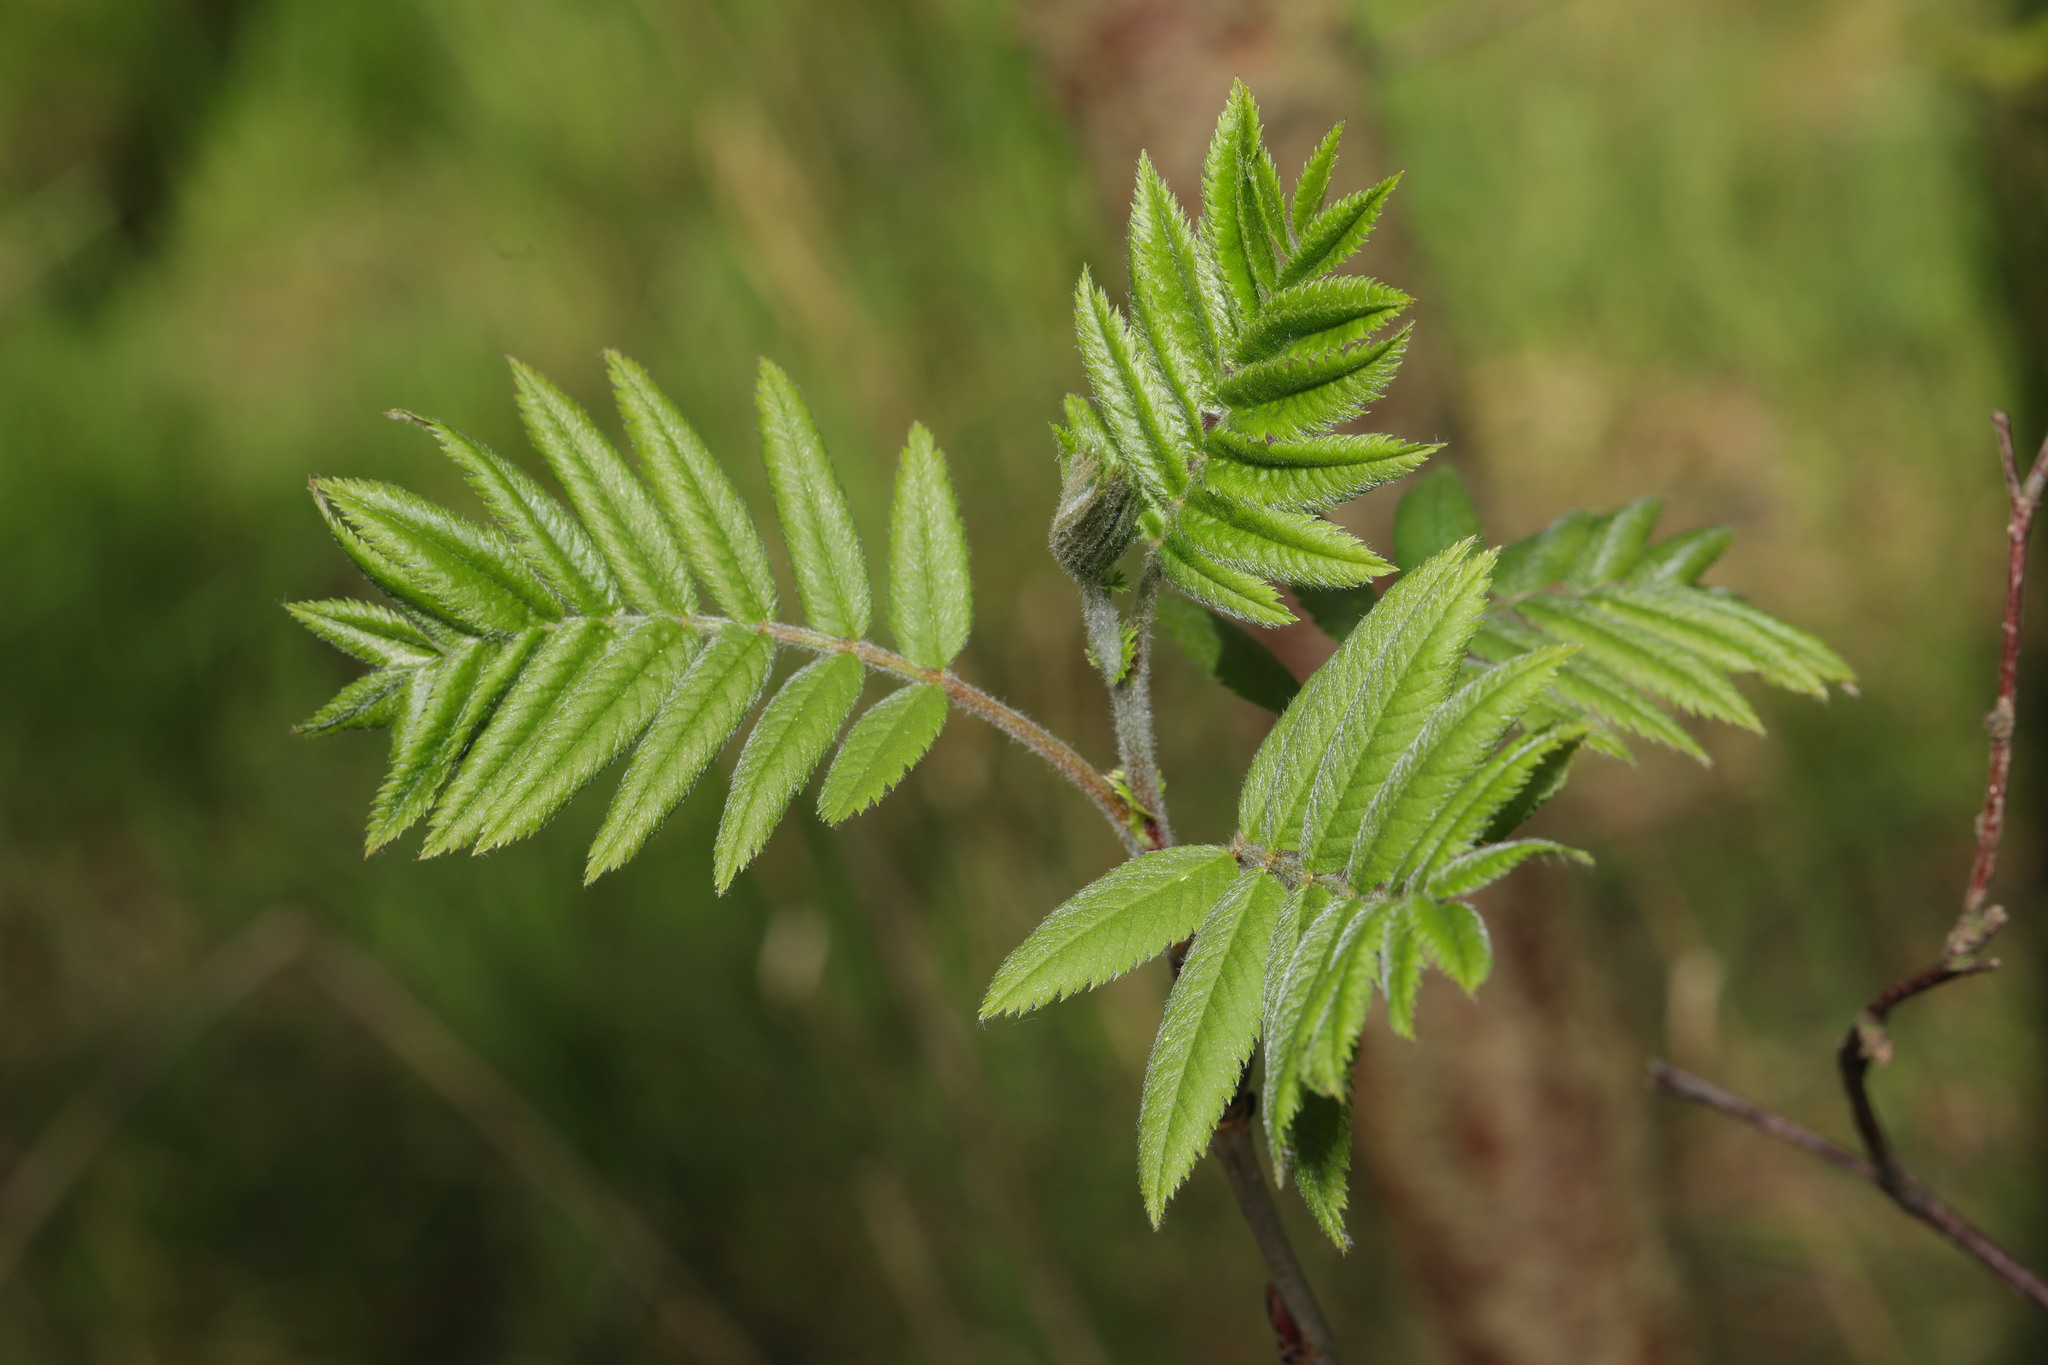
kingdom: Plantae
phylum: Tracheophyta
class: Magnoliopsida
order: Rosales
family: Rosaceae
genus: Sorbus
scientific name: Sorbus aucuparia
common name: Rowan
